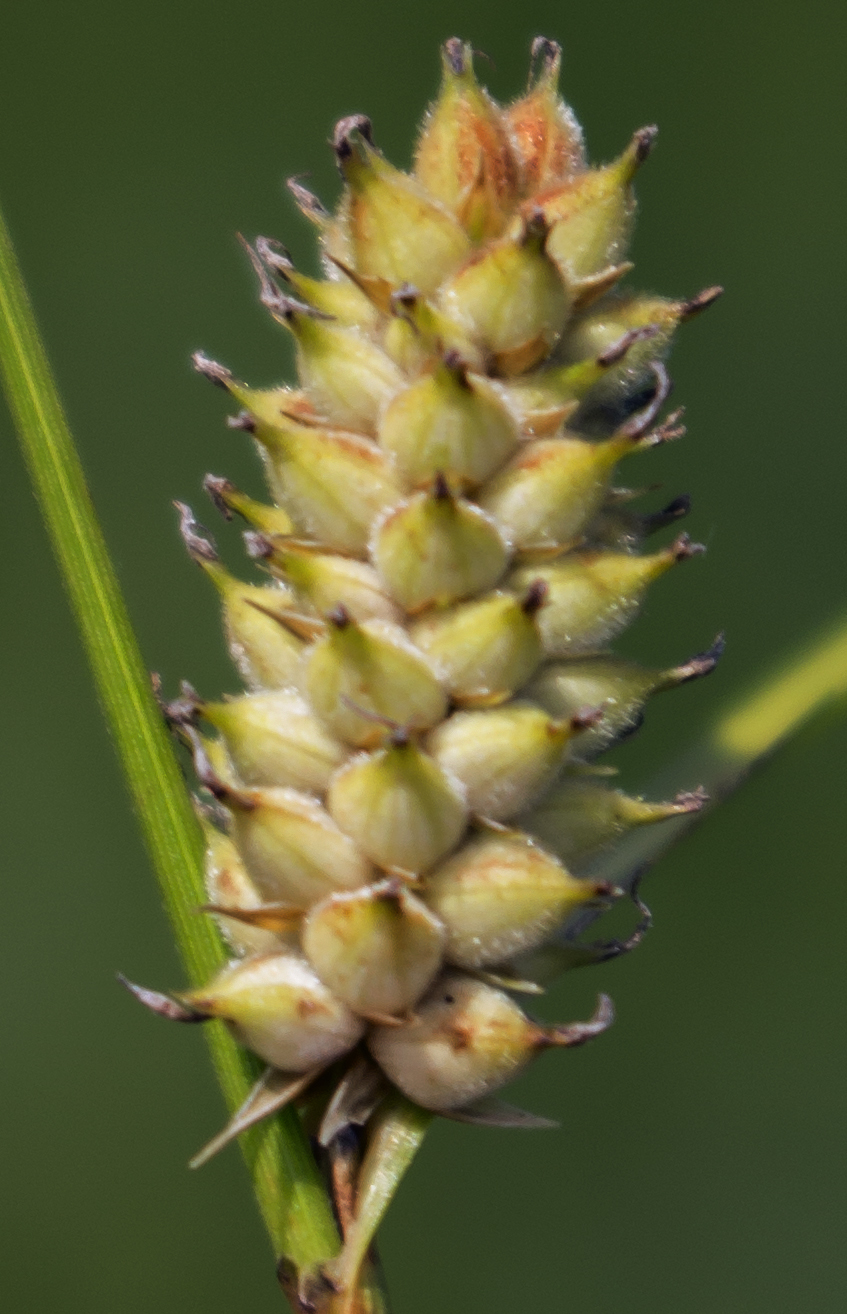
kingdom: Plantae
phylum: Tracheophyta
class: Liliopsida
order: Poales
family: Cyperaceae
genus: Carex
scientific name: Carex pellita
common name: Woolly sedge
